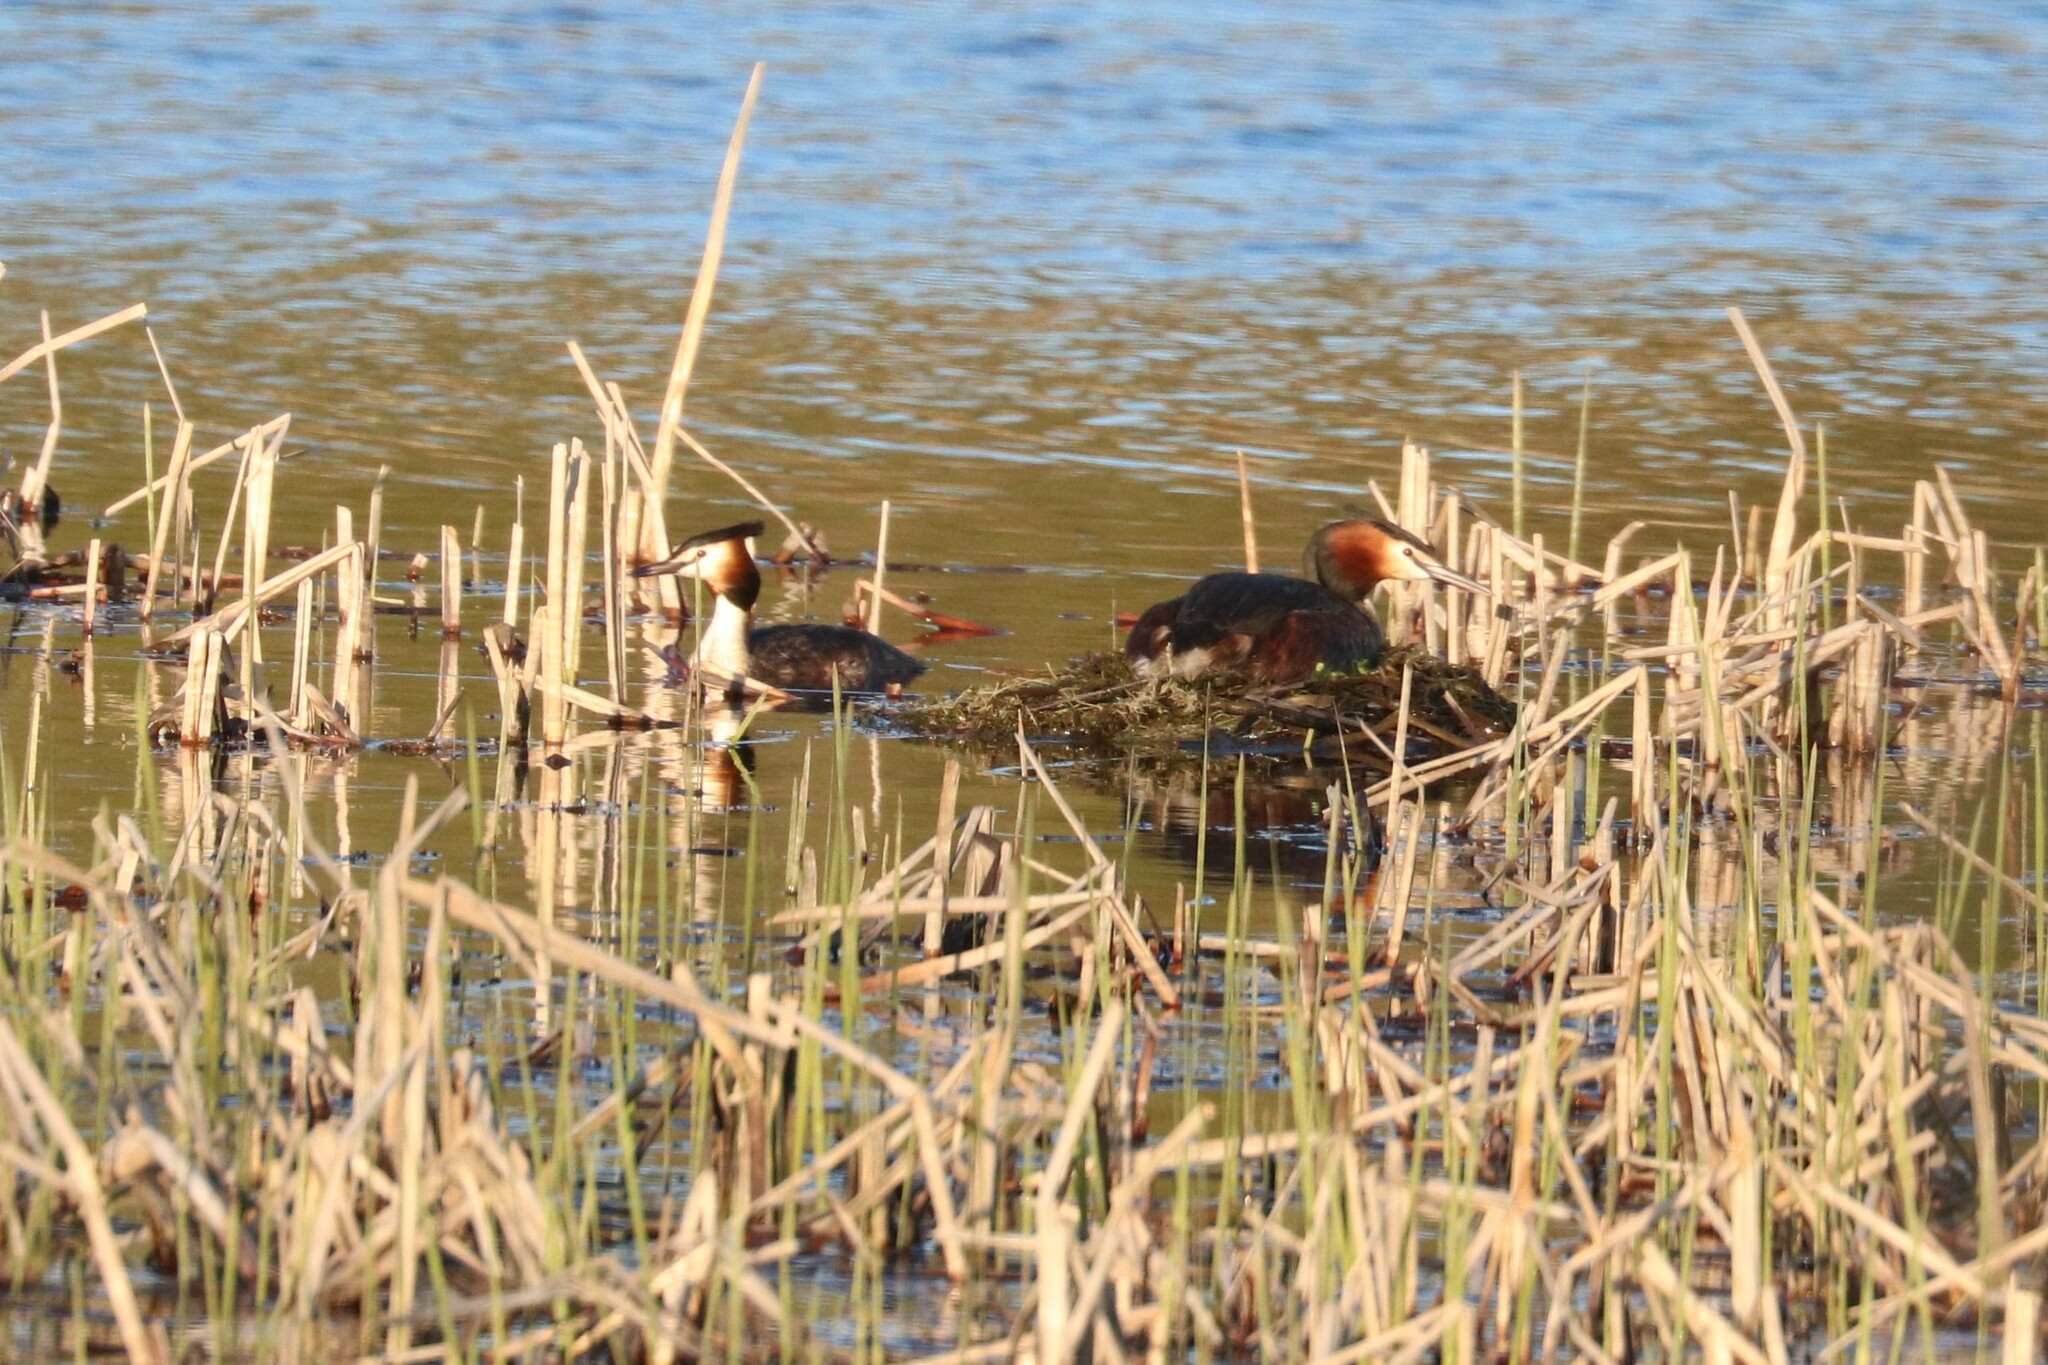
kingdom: Animalia
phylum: Chordata
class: Aves
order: Podicipediformes
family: Podicipedidae
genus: Podiceps
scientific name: Podiceps cristatus
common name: Great crested grebe
